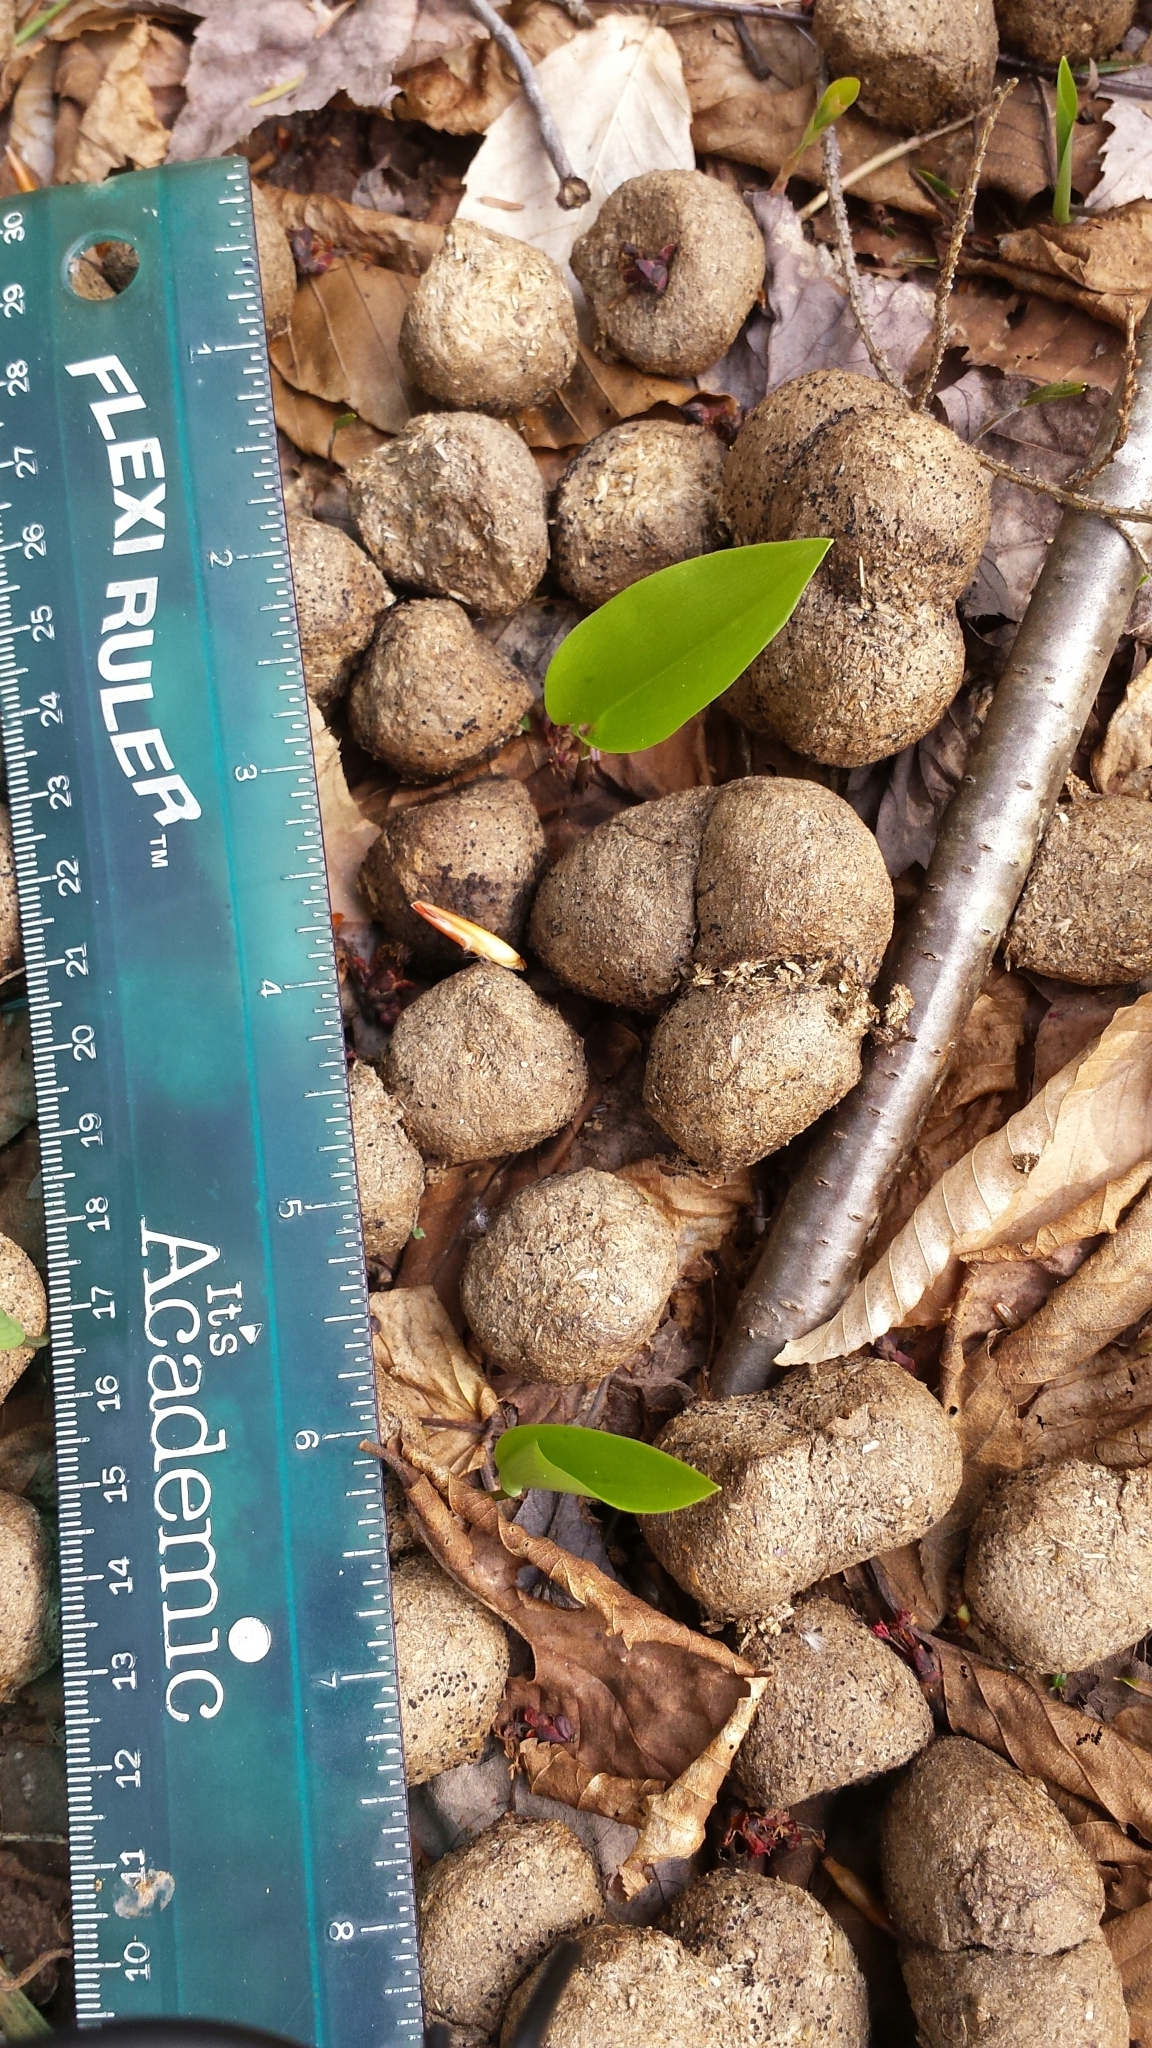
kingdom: Animalia
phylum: Chordata
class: Mammalia
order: Artiodactyla
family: Cervidae
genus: Alces
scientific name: Alces alces
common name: Moose
